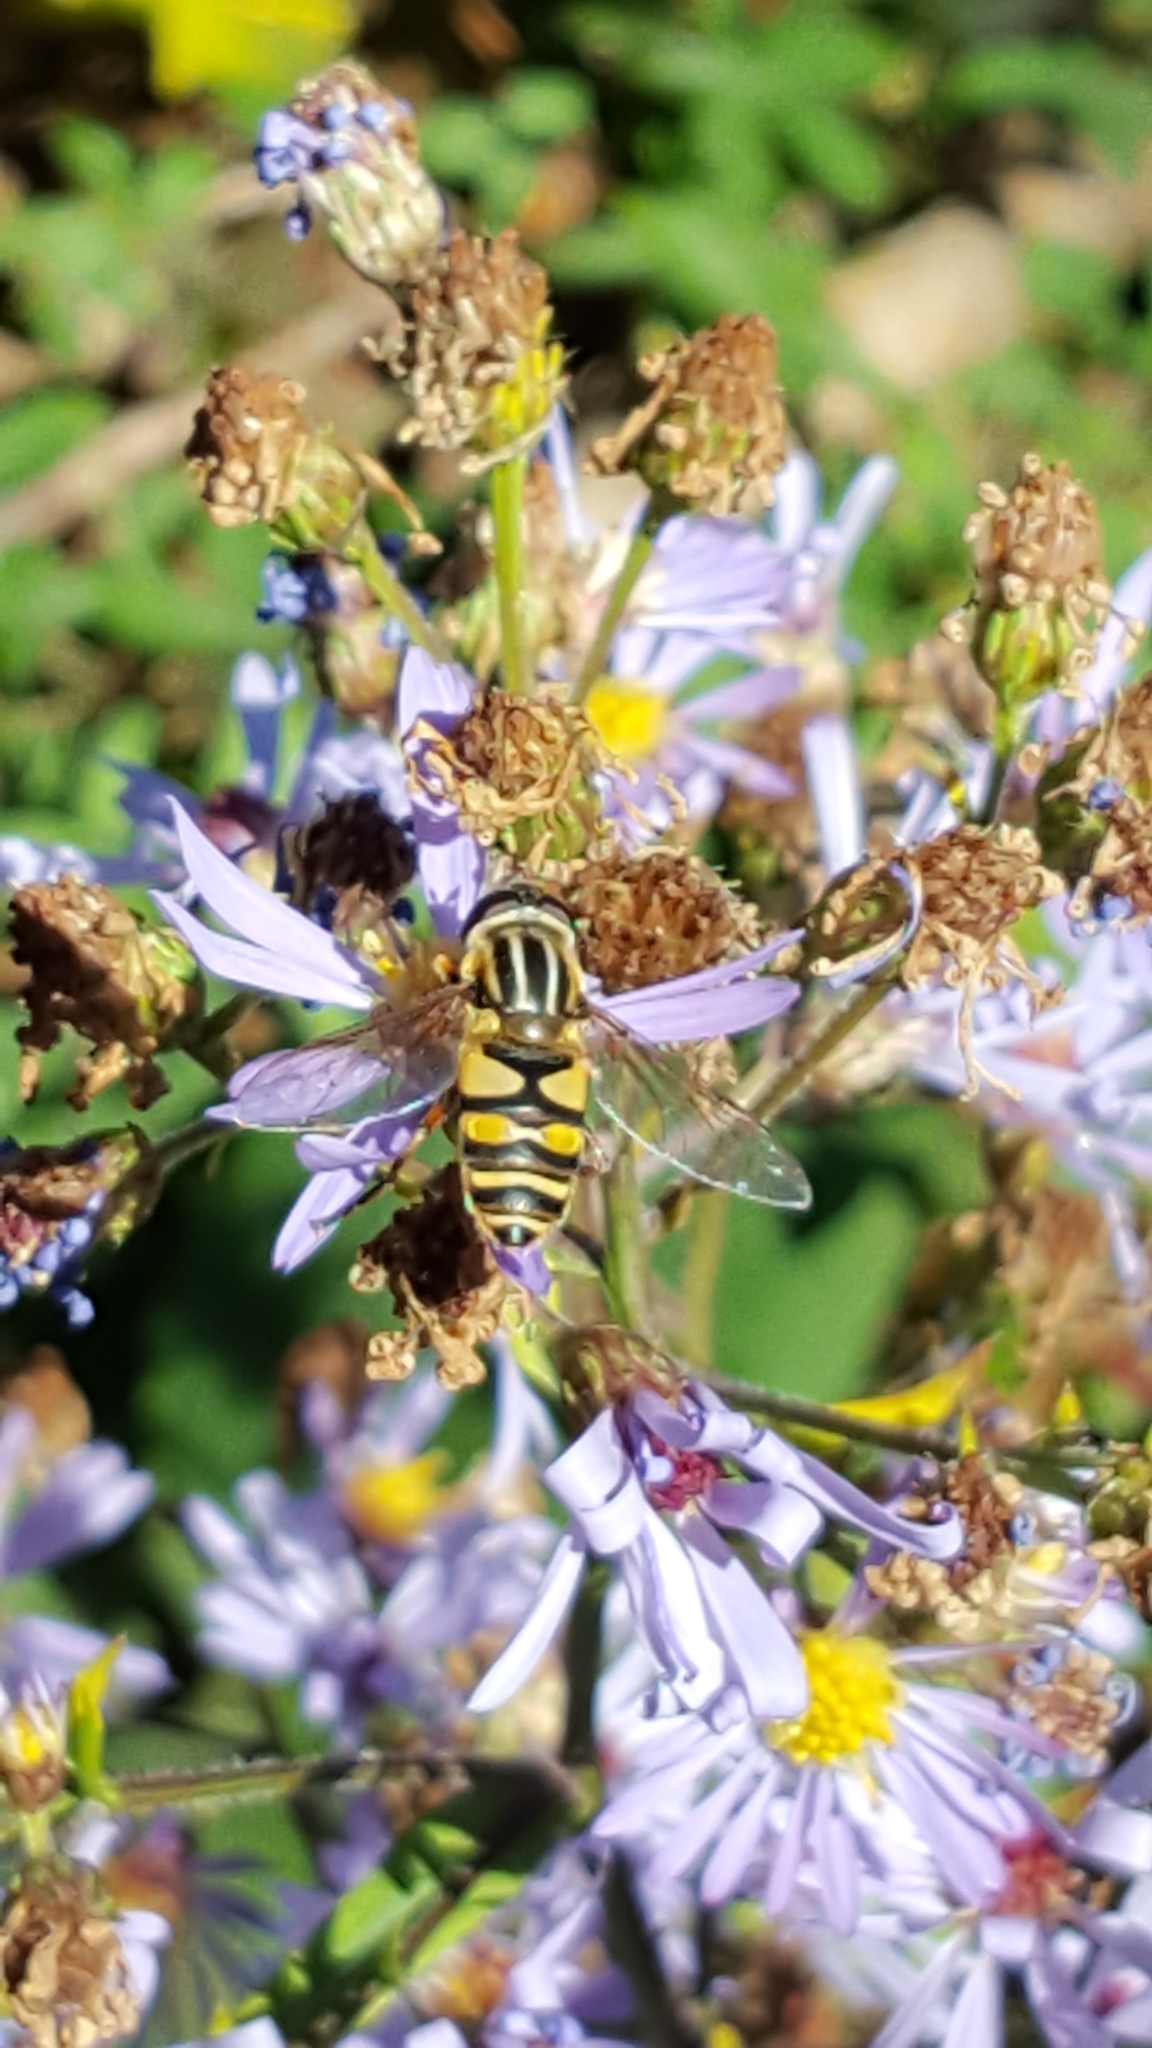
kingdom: Animalia
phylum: Arthropoda
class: Insecta
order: Diptera
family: Syrphidae
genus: Helophilus
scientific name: Helophilus fasciatus
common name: Narrow-headed marsh fly
